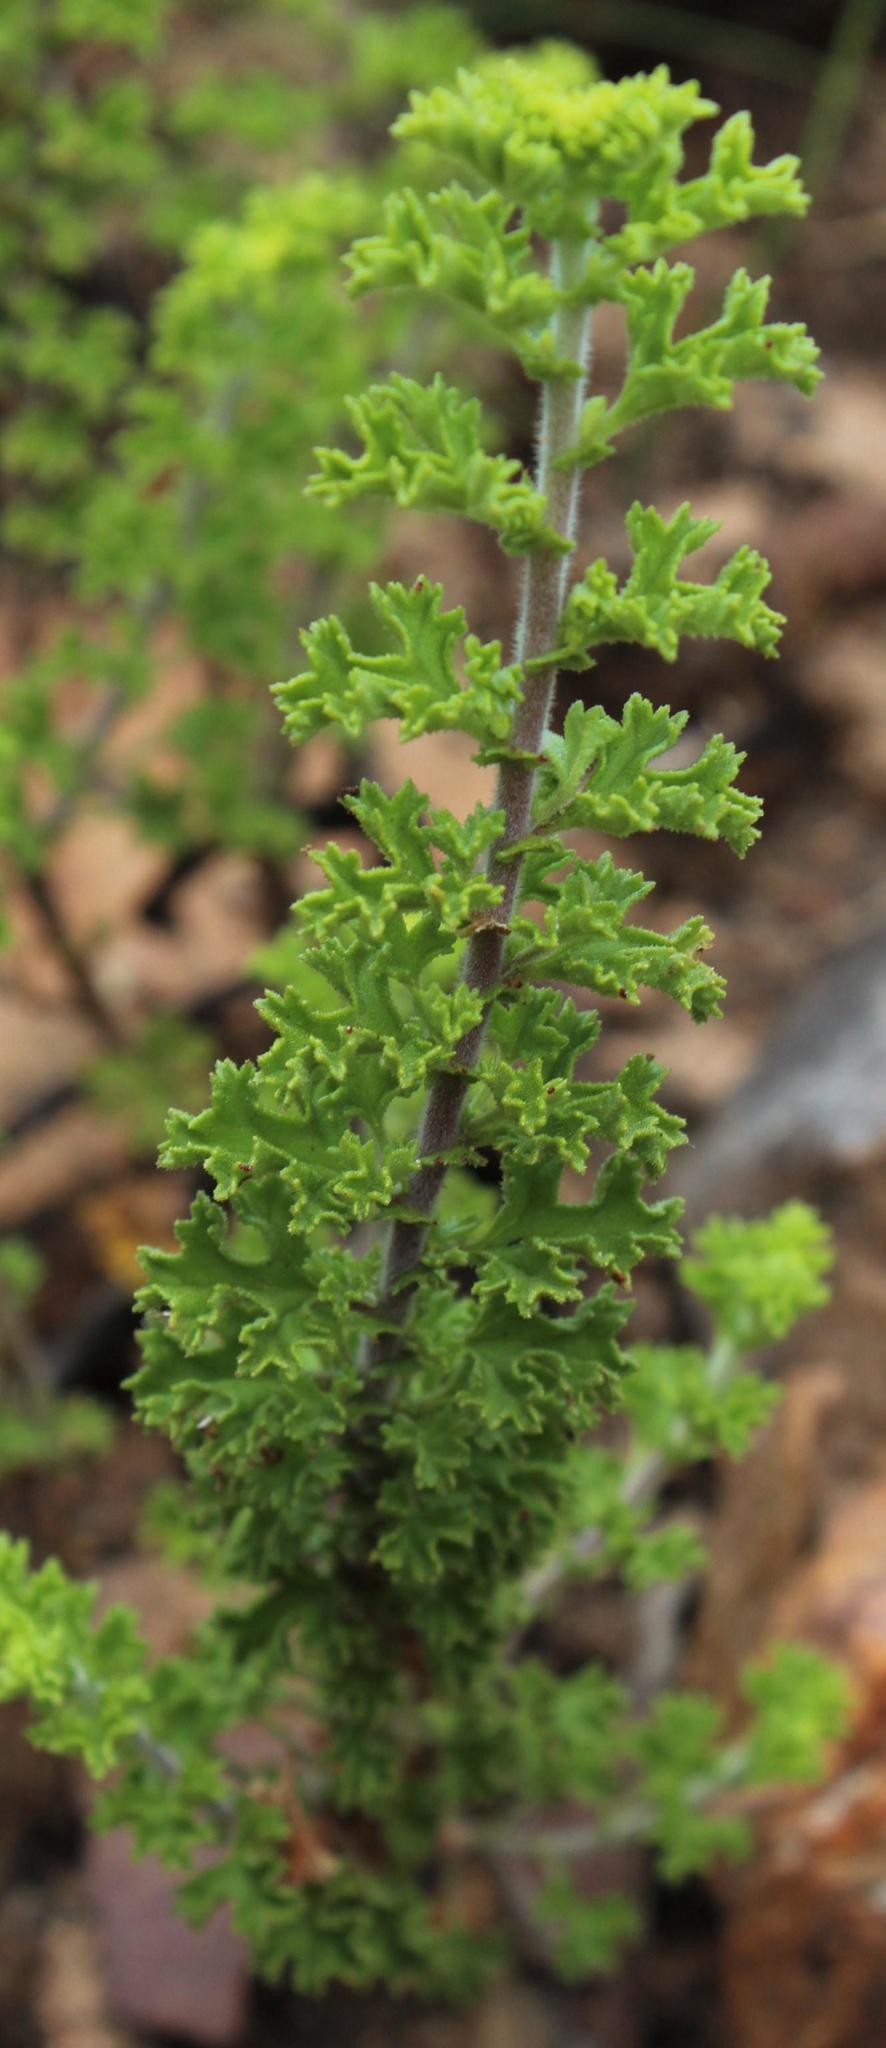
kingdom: Plantae
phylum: Tracheophyta
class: Magnoliopsida
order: Geraniales
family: Geraniaceae
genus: Pelargonium
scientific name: Pelargonium hermaniifolium
